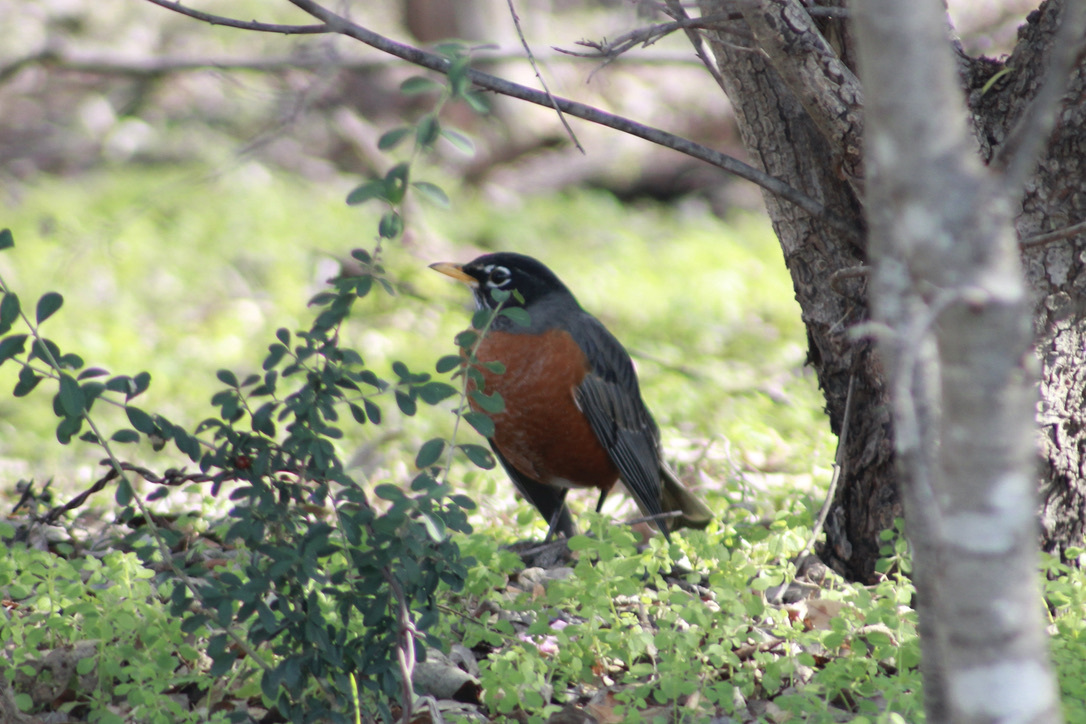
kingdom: Animalia
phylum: Chordata
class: Aves
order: Passeriformes
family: Turdidae
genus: Turdus
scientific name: Turdus migratorius
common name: American robin
